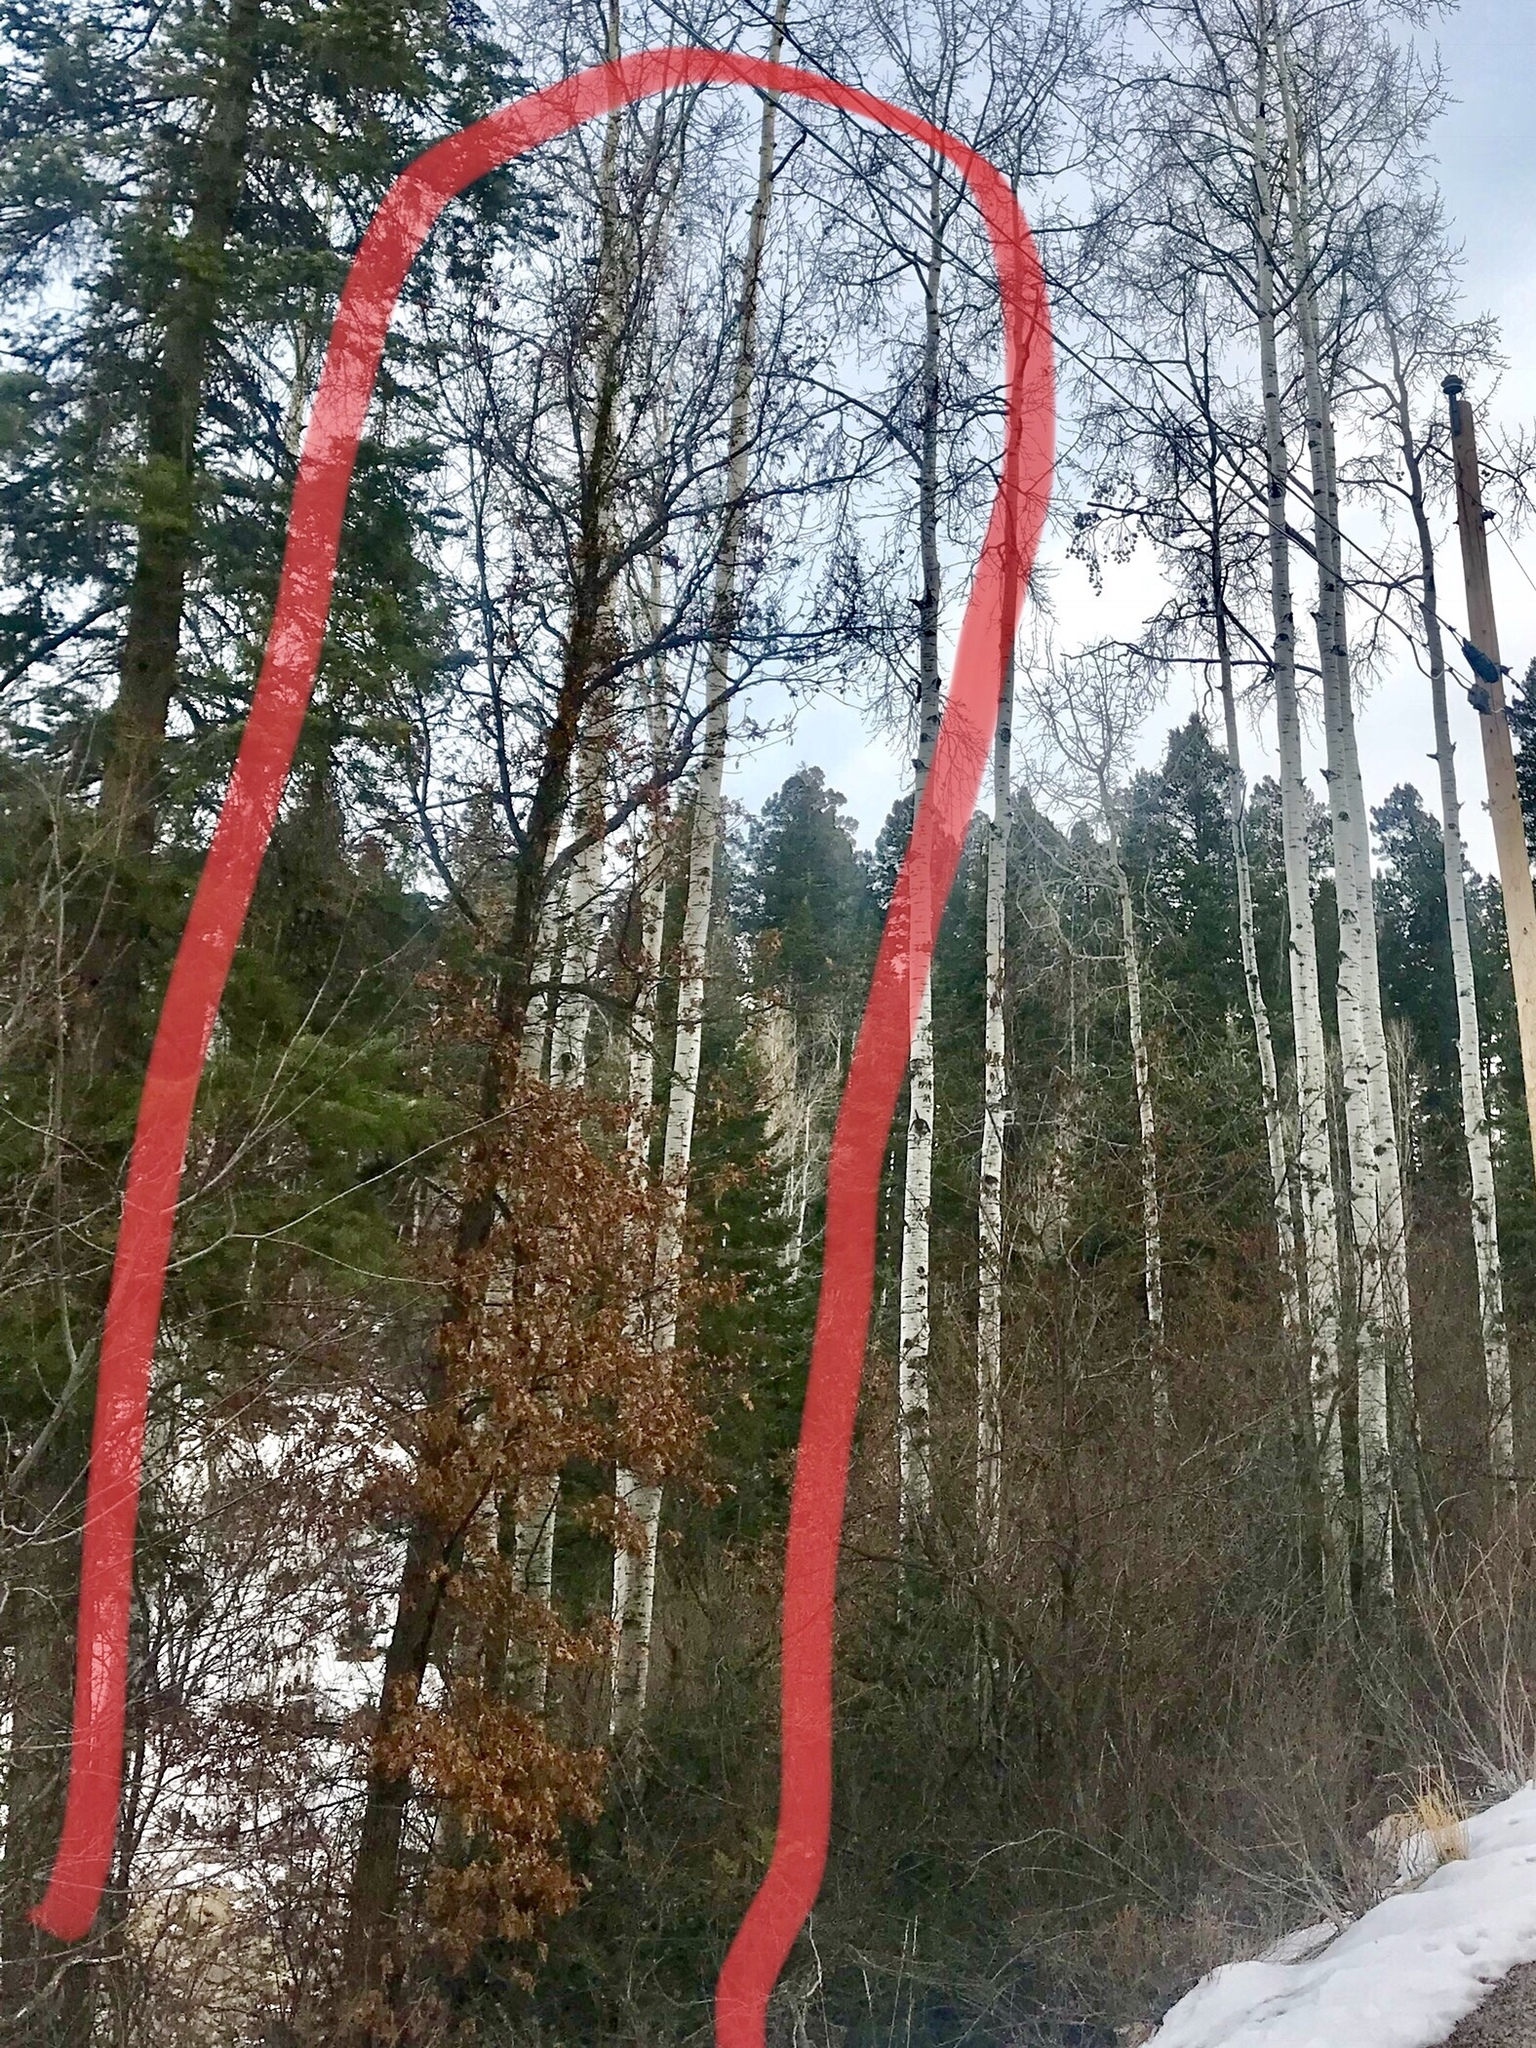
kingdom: Plantae
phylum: Tracheophyta
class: Magnoliopsida
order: Fagales
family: Fagaceae
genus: Quercus
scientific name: Quercus gambelii
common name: Gambel oak
